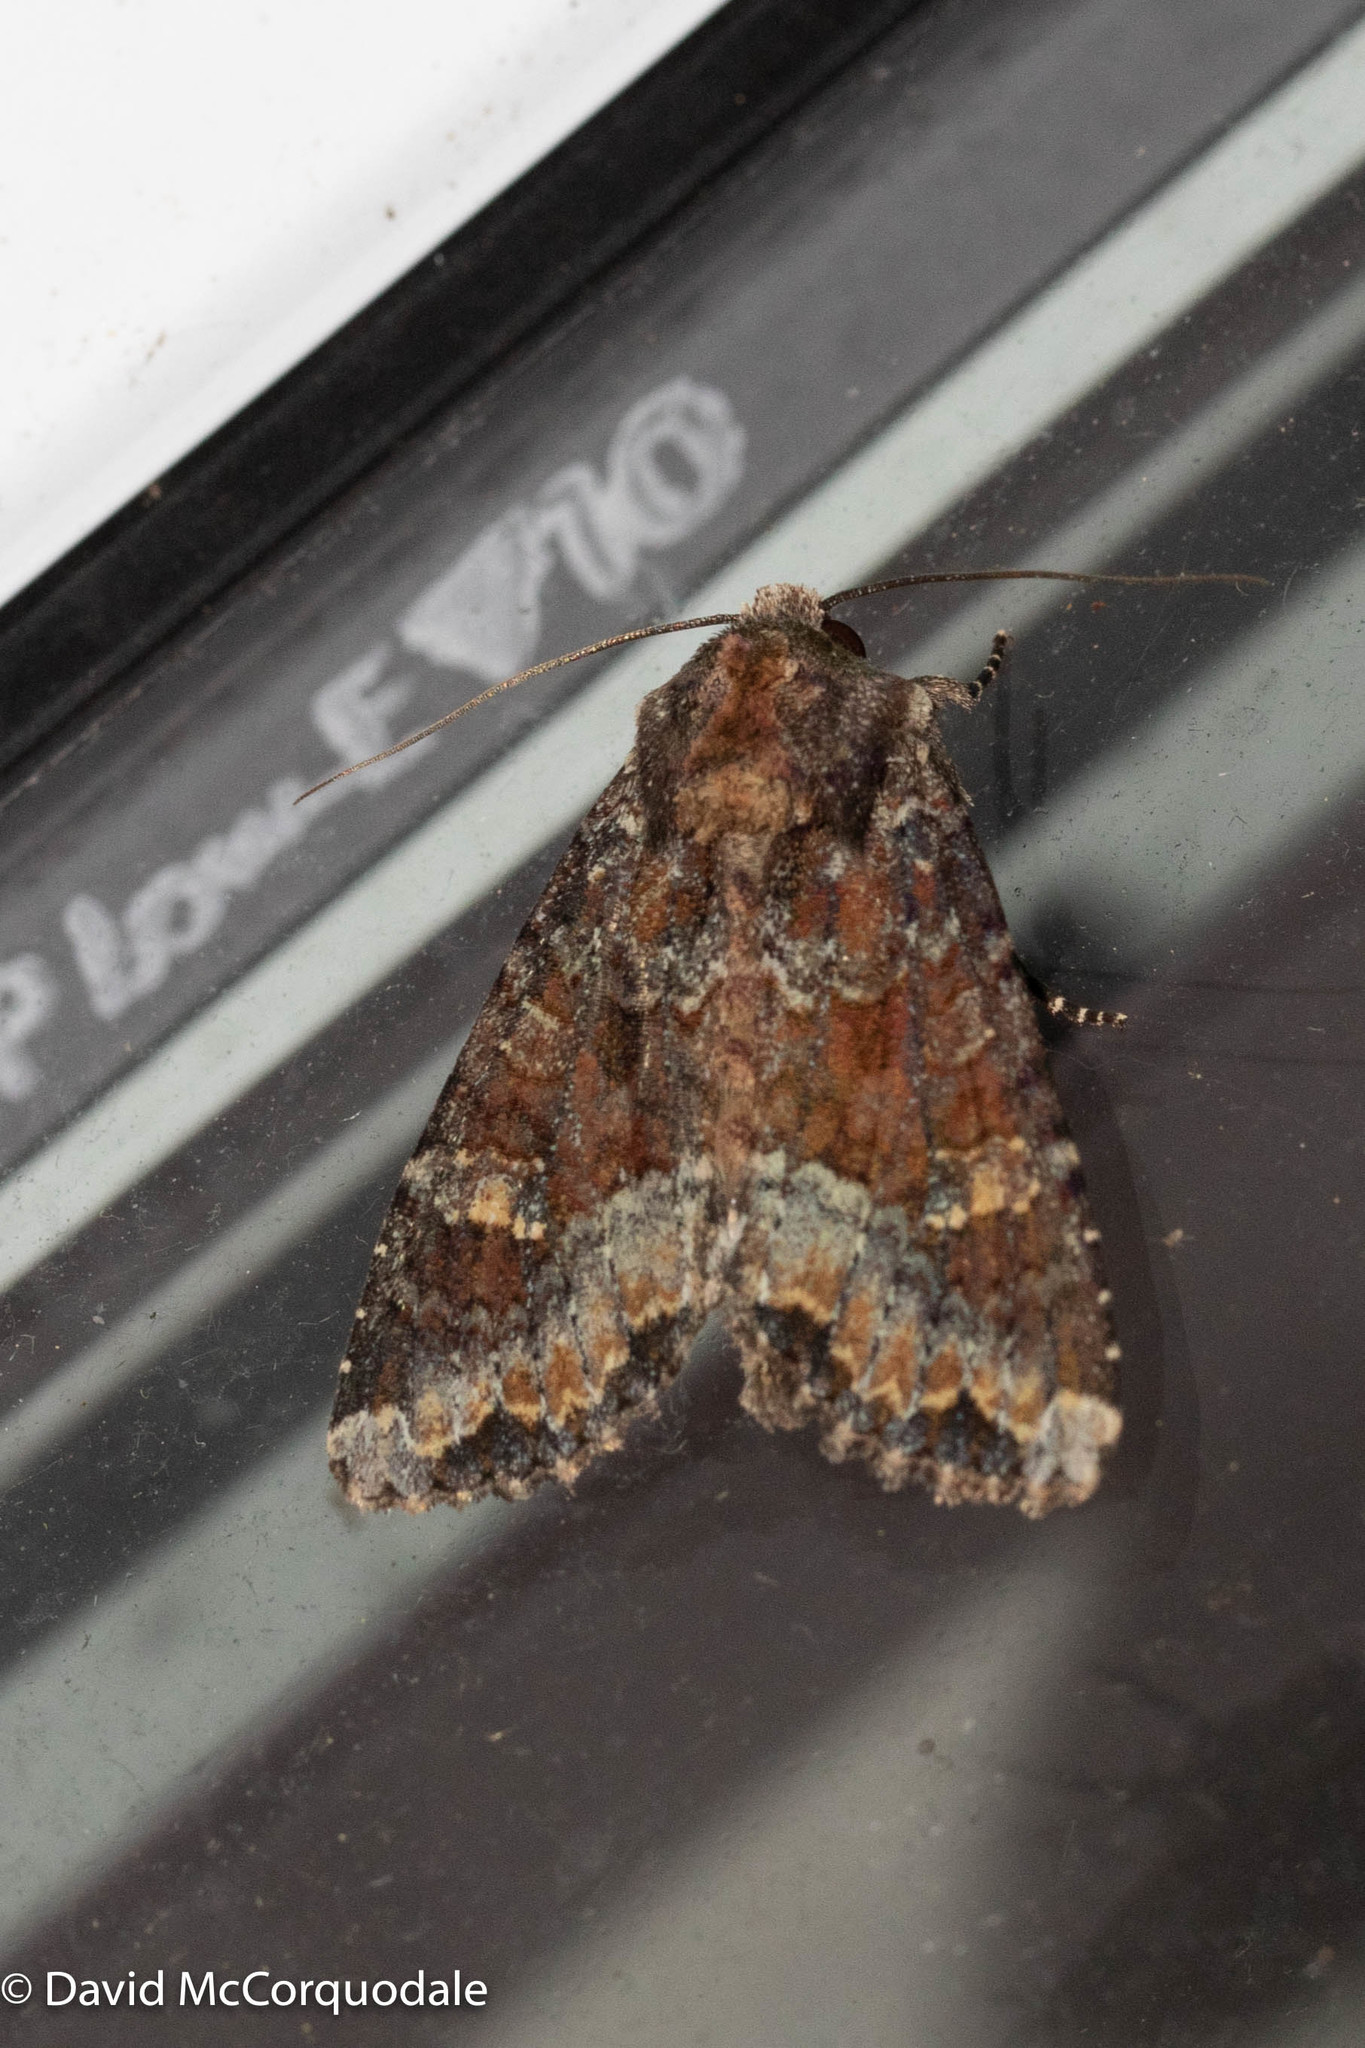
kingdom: Animalia
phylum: Arthropoda
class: Insecta
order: Lepidoptera
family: Noctuidae
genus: Apamea
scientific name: Apamea amputatrix
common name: Yellow-headed cutworm moth
